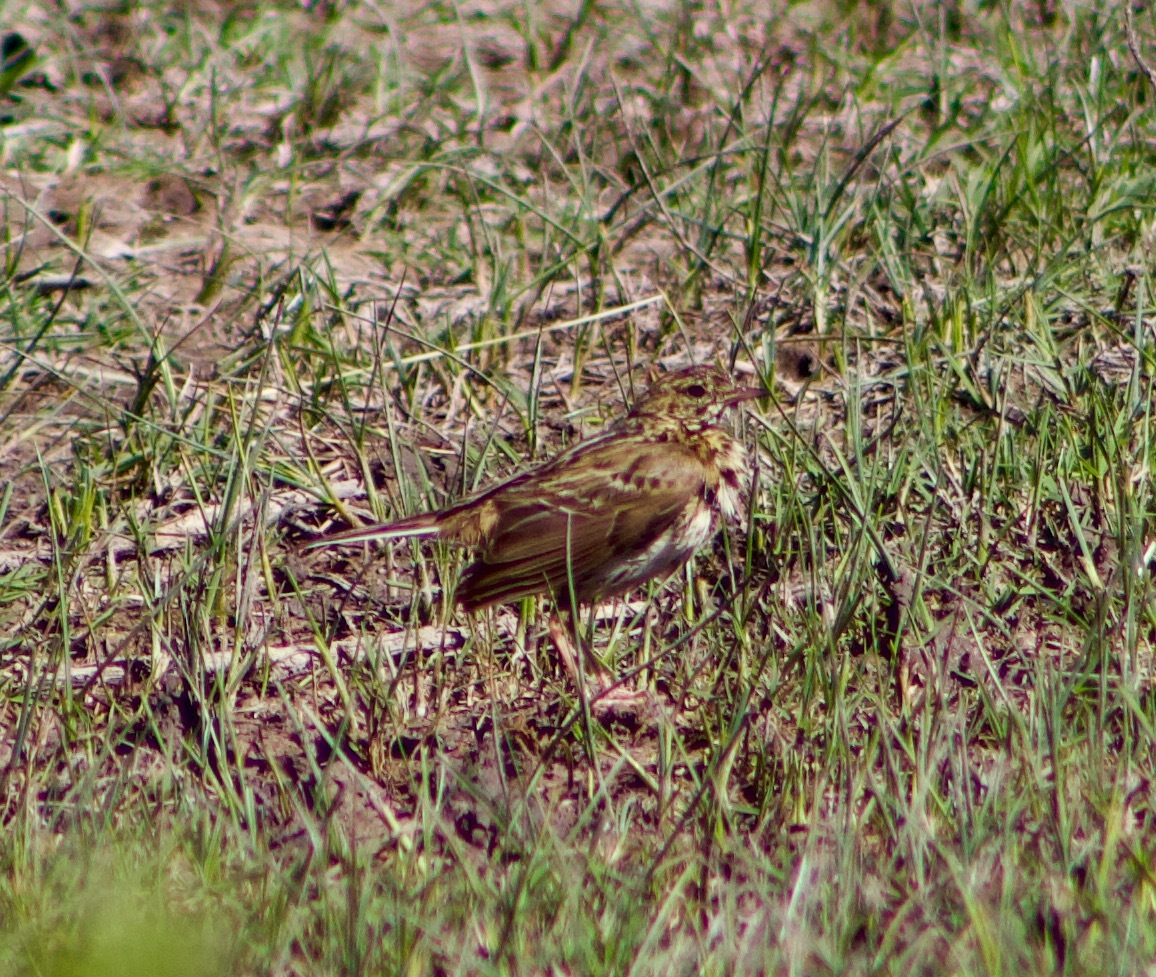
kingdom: Animalia
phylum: Chordata
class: Aves
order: Passeriformes
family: Motacillidae
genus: Anthus
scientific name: Anthus correndera
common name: Correndera pipit
